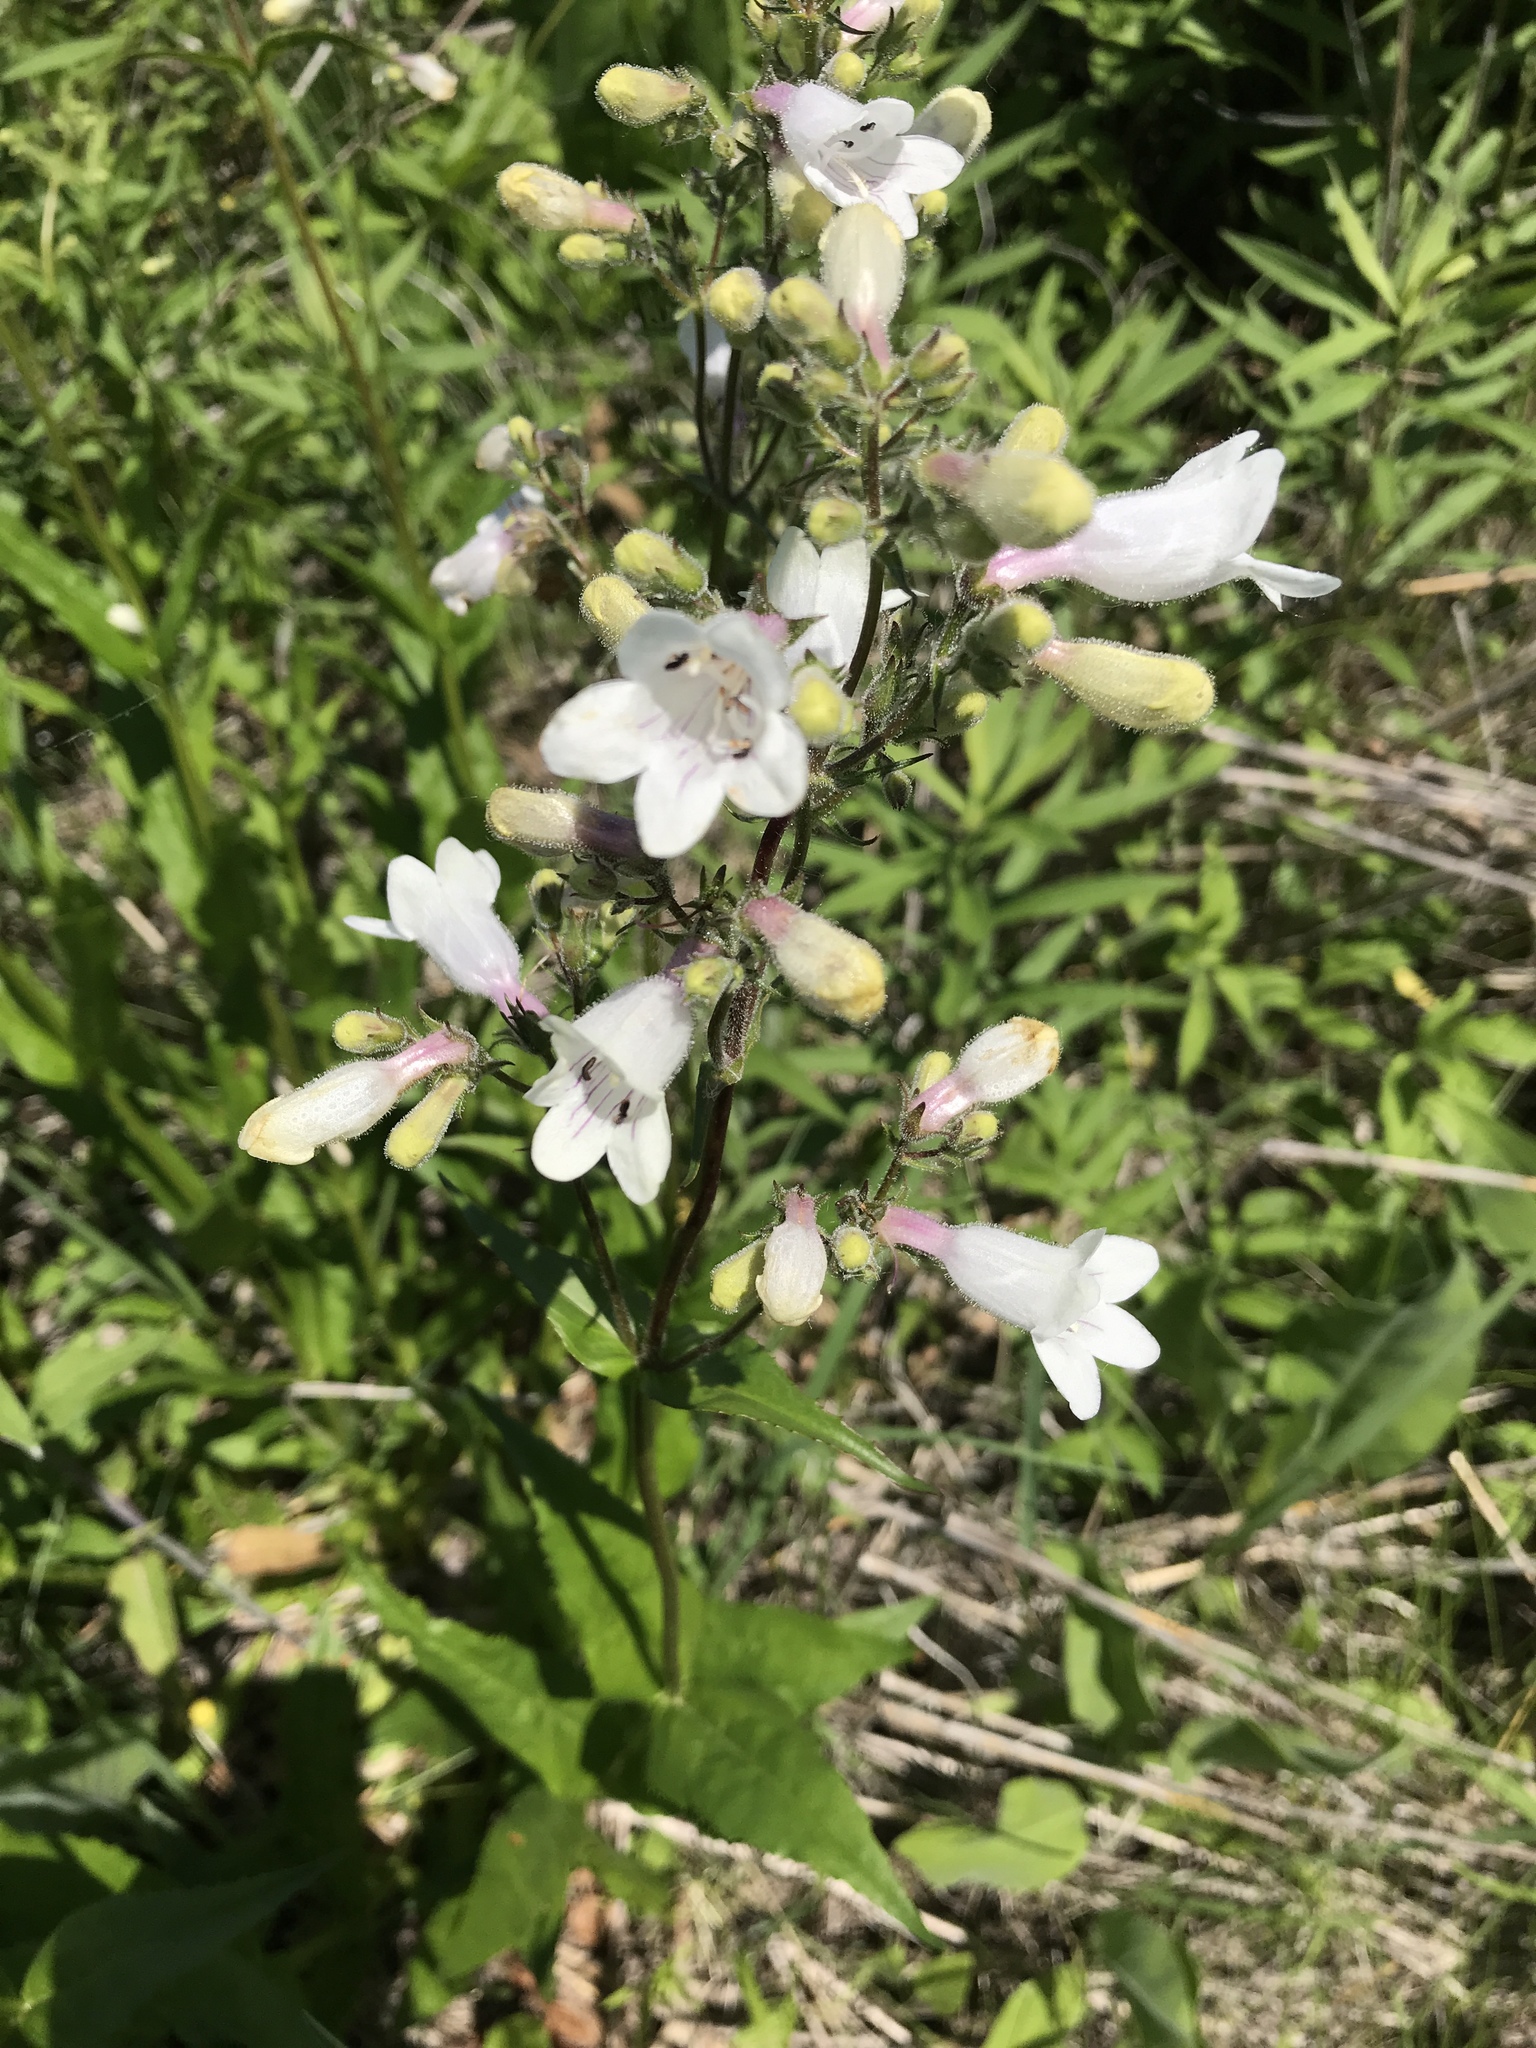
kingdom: Plantae
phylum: Tracheophyta
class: Magnoliopsida
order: Lamiales
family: Plantaginaceae
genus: Penstemon
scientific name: Penstemon digitalis
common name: Foxglove beardtongue
